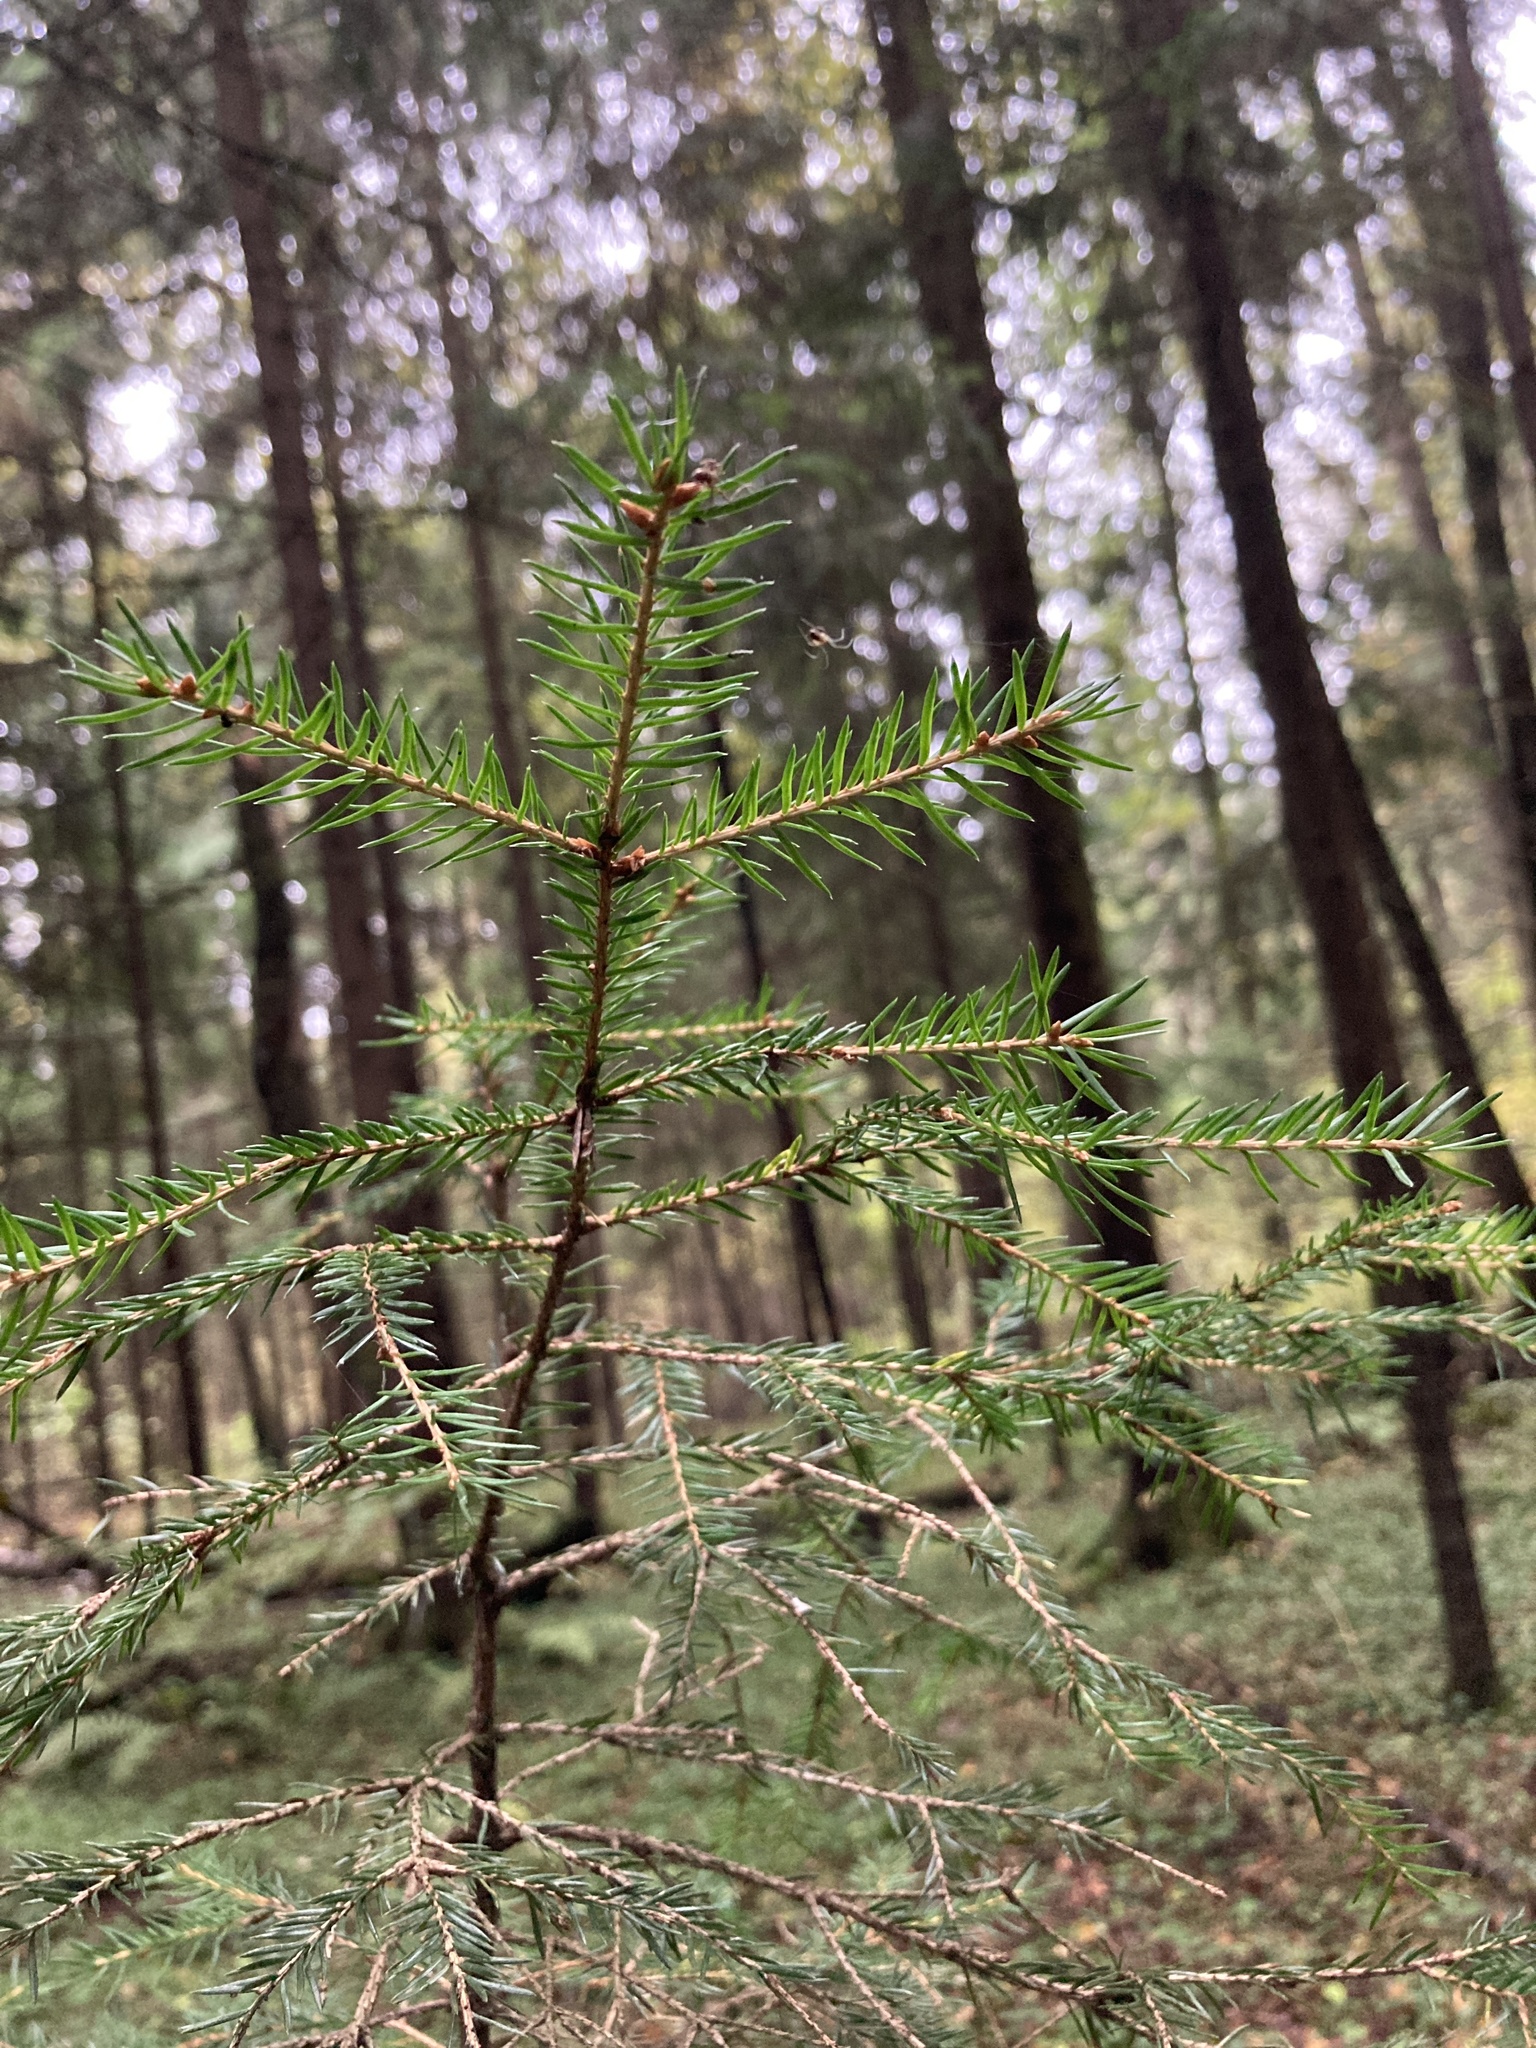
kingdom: Plantae
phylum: Tracheophyta
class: Pinopsida
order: Pinales
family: Pinaceae
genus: Picea
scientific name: Picea abies
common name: Norway spruce
